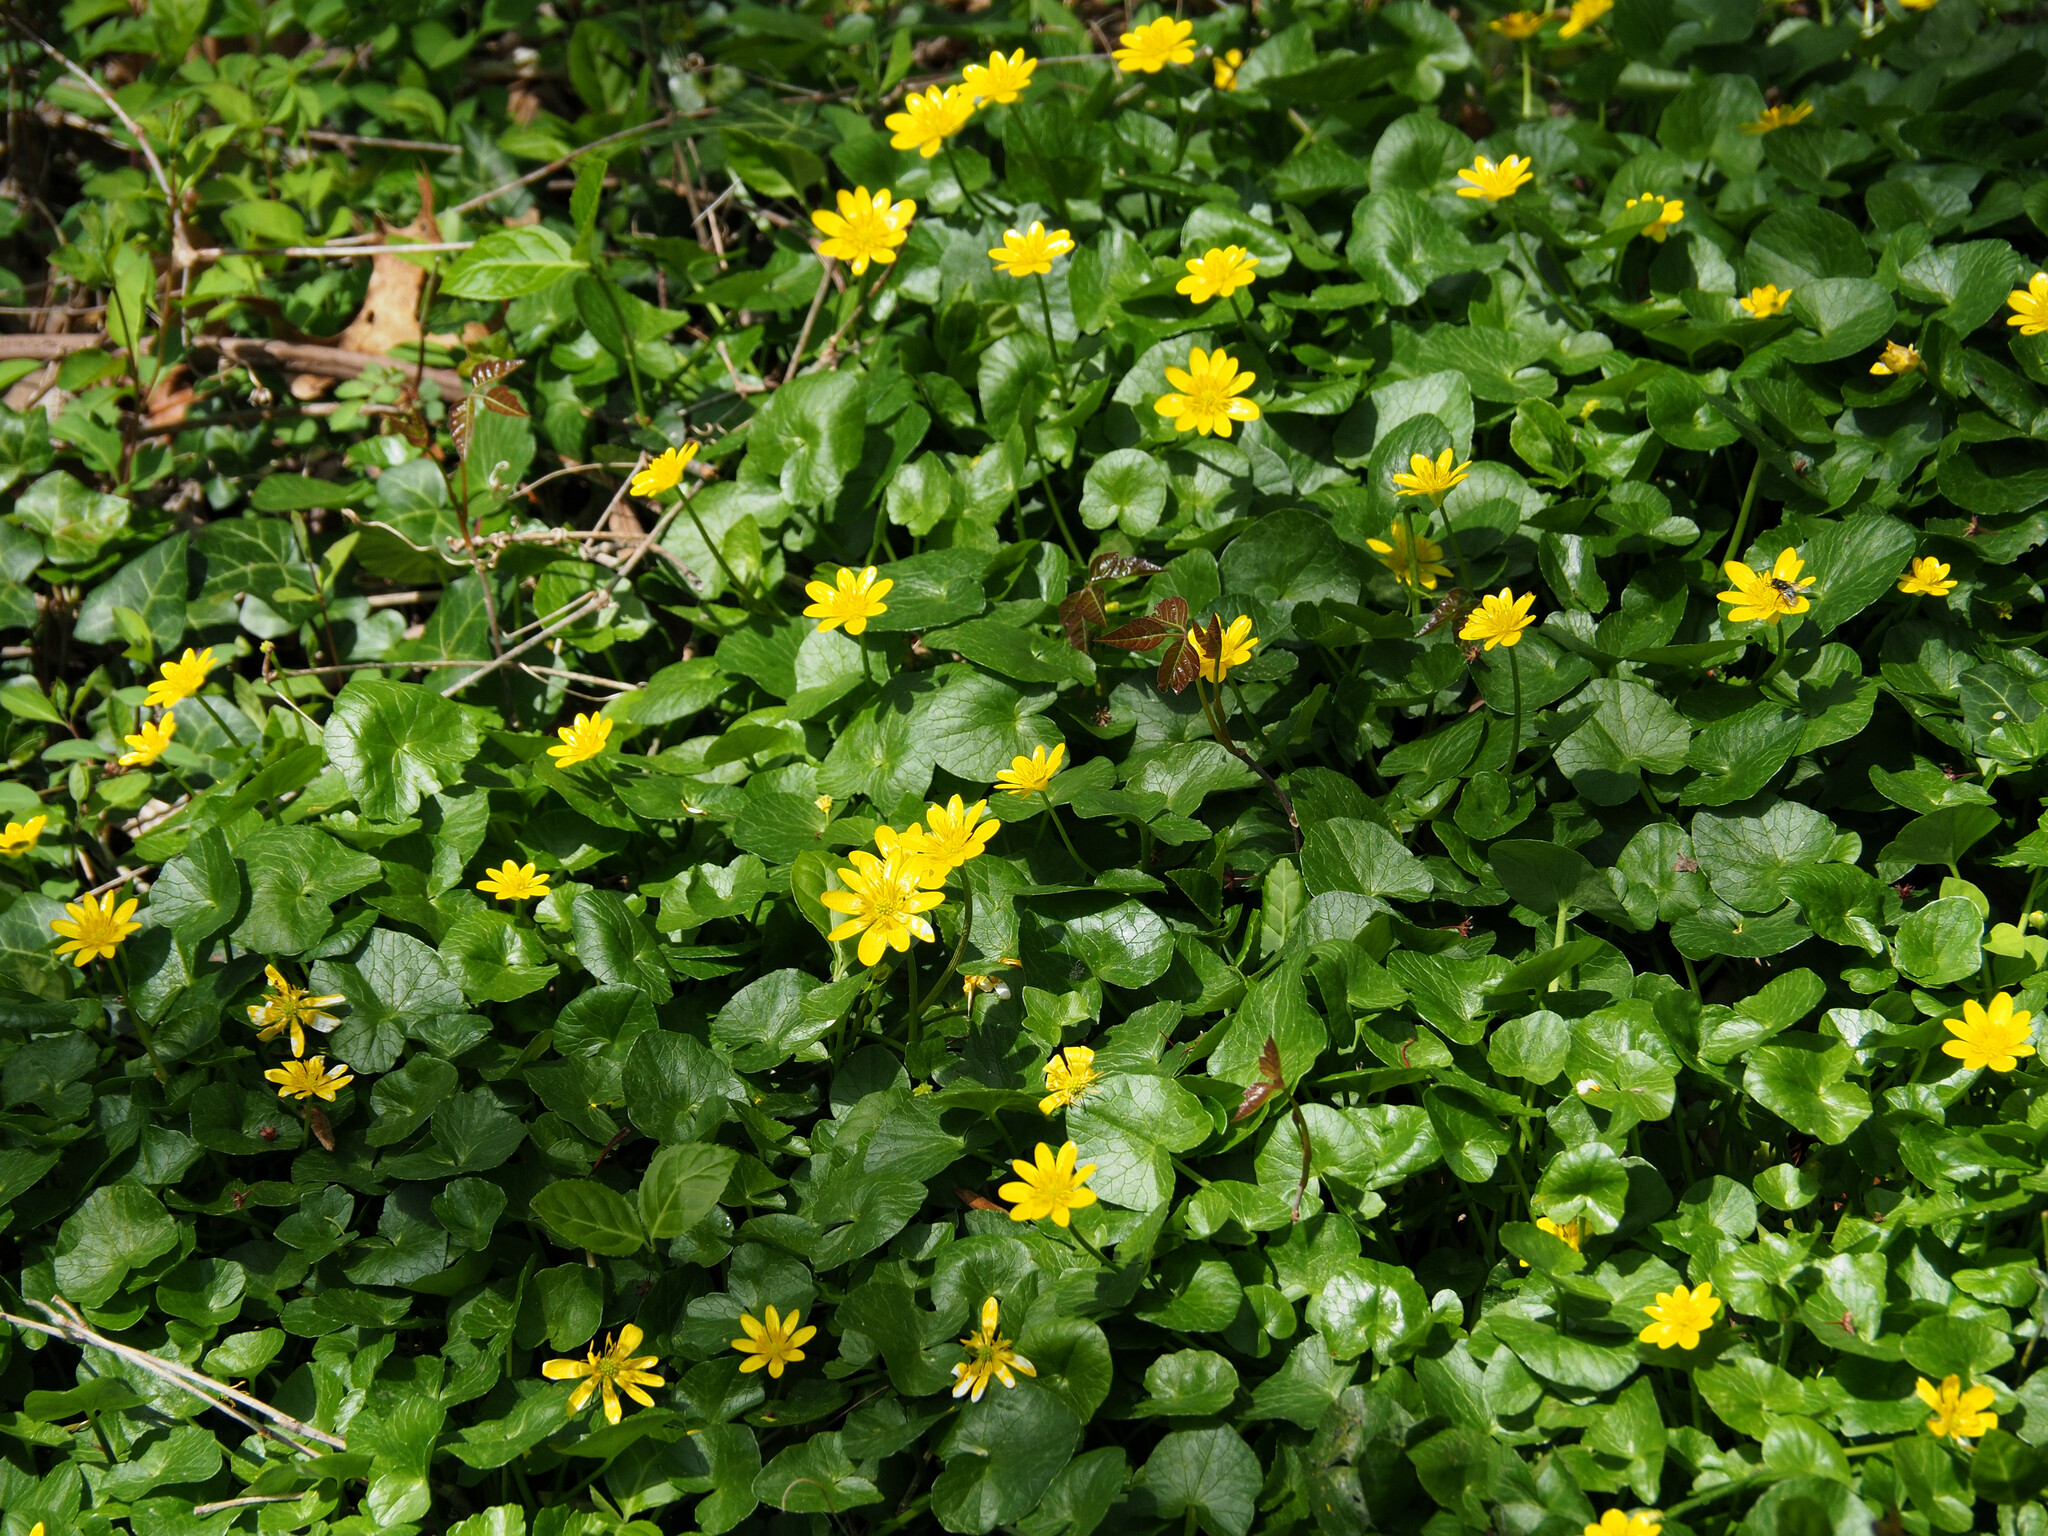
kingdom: Plantae
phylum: Tracheophyta
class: Magnoliopsida
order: Ranunculales
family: Ranunculaceae
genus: Ficaria
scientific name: Ficaria verna
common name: Lesser celandine
